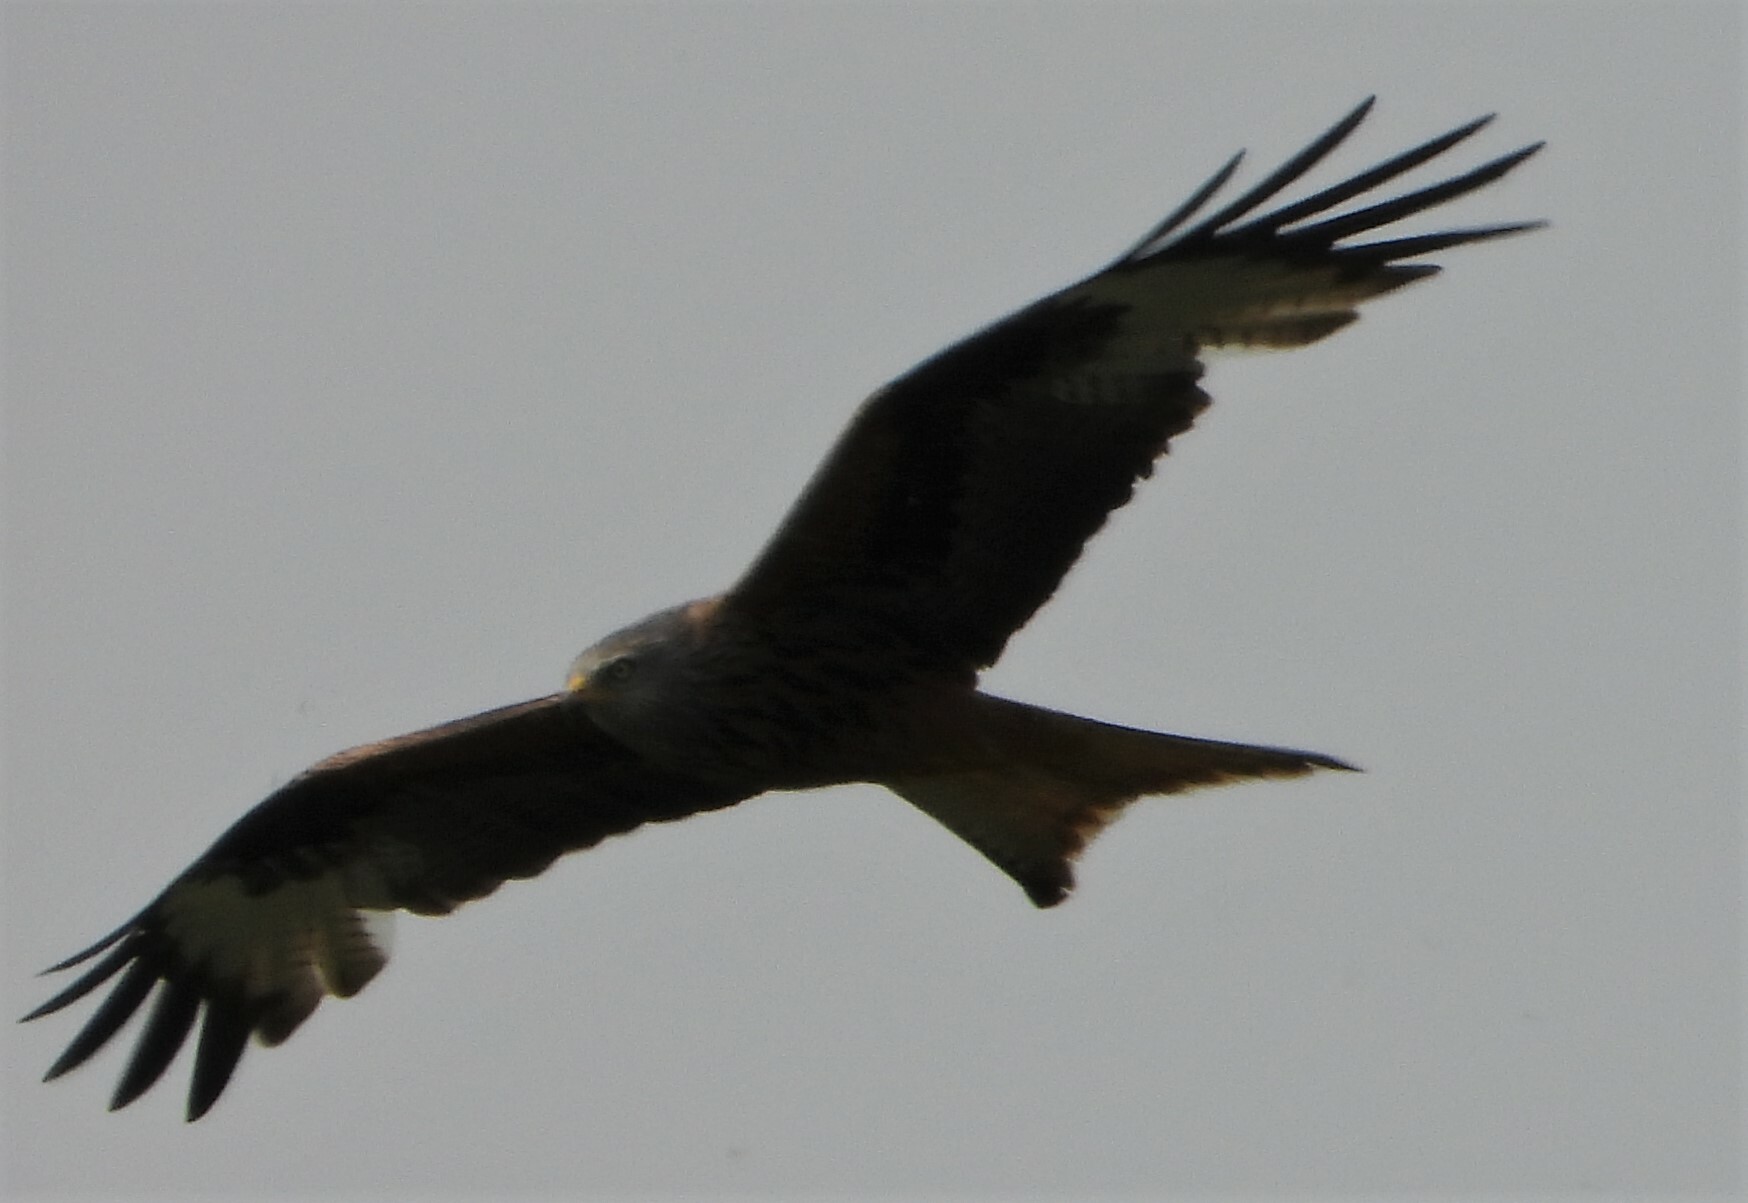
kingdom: Animalia
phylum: Chordata
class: Aves
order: Accipitriformes
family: Accipitridae
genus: Milvus
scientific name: Milvus milvus
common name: Red kite
